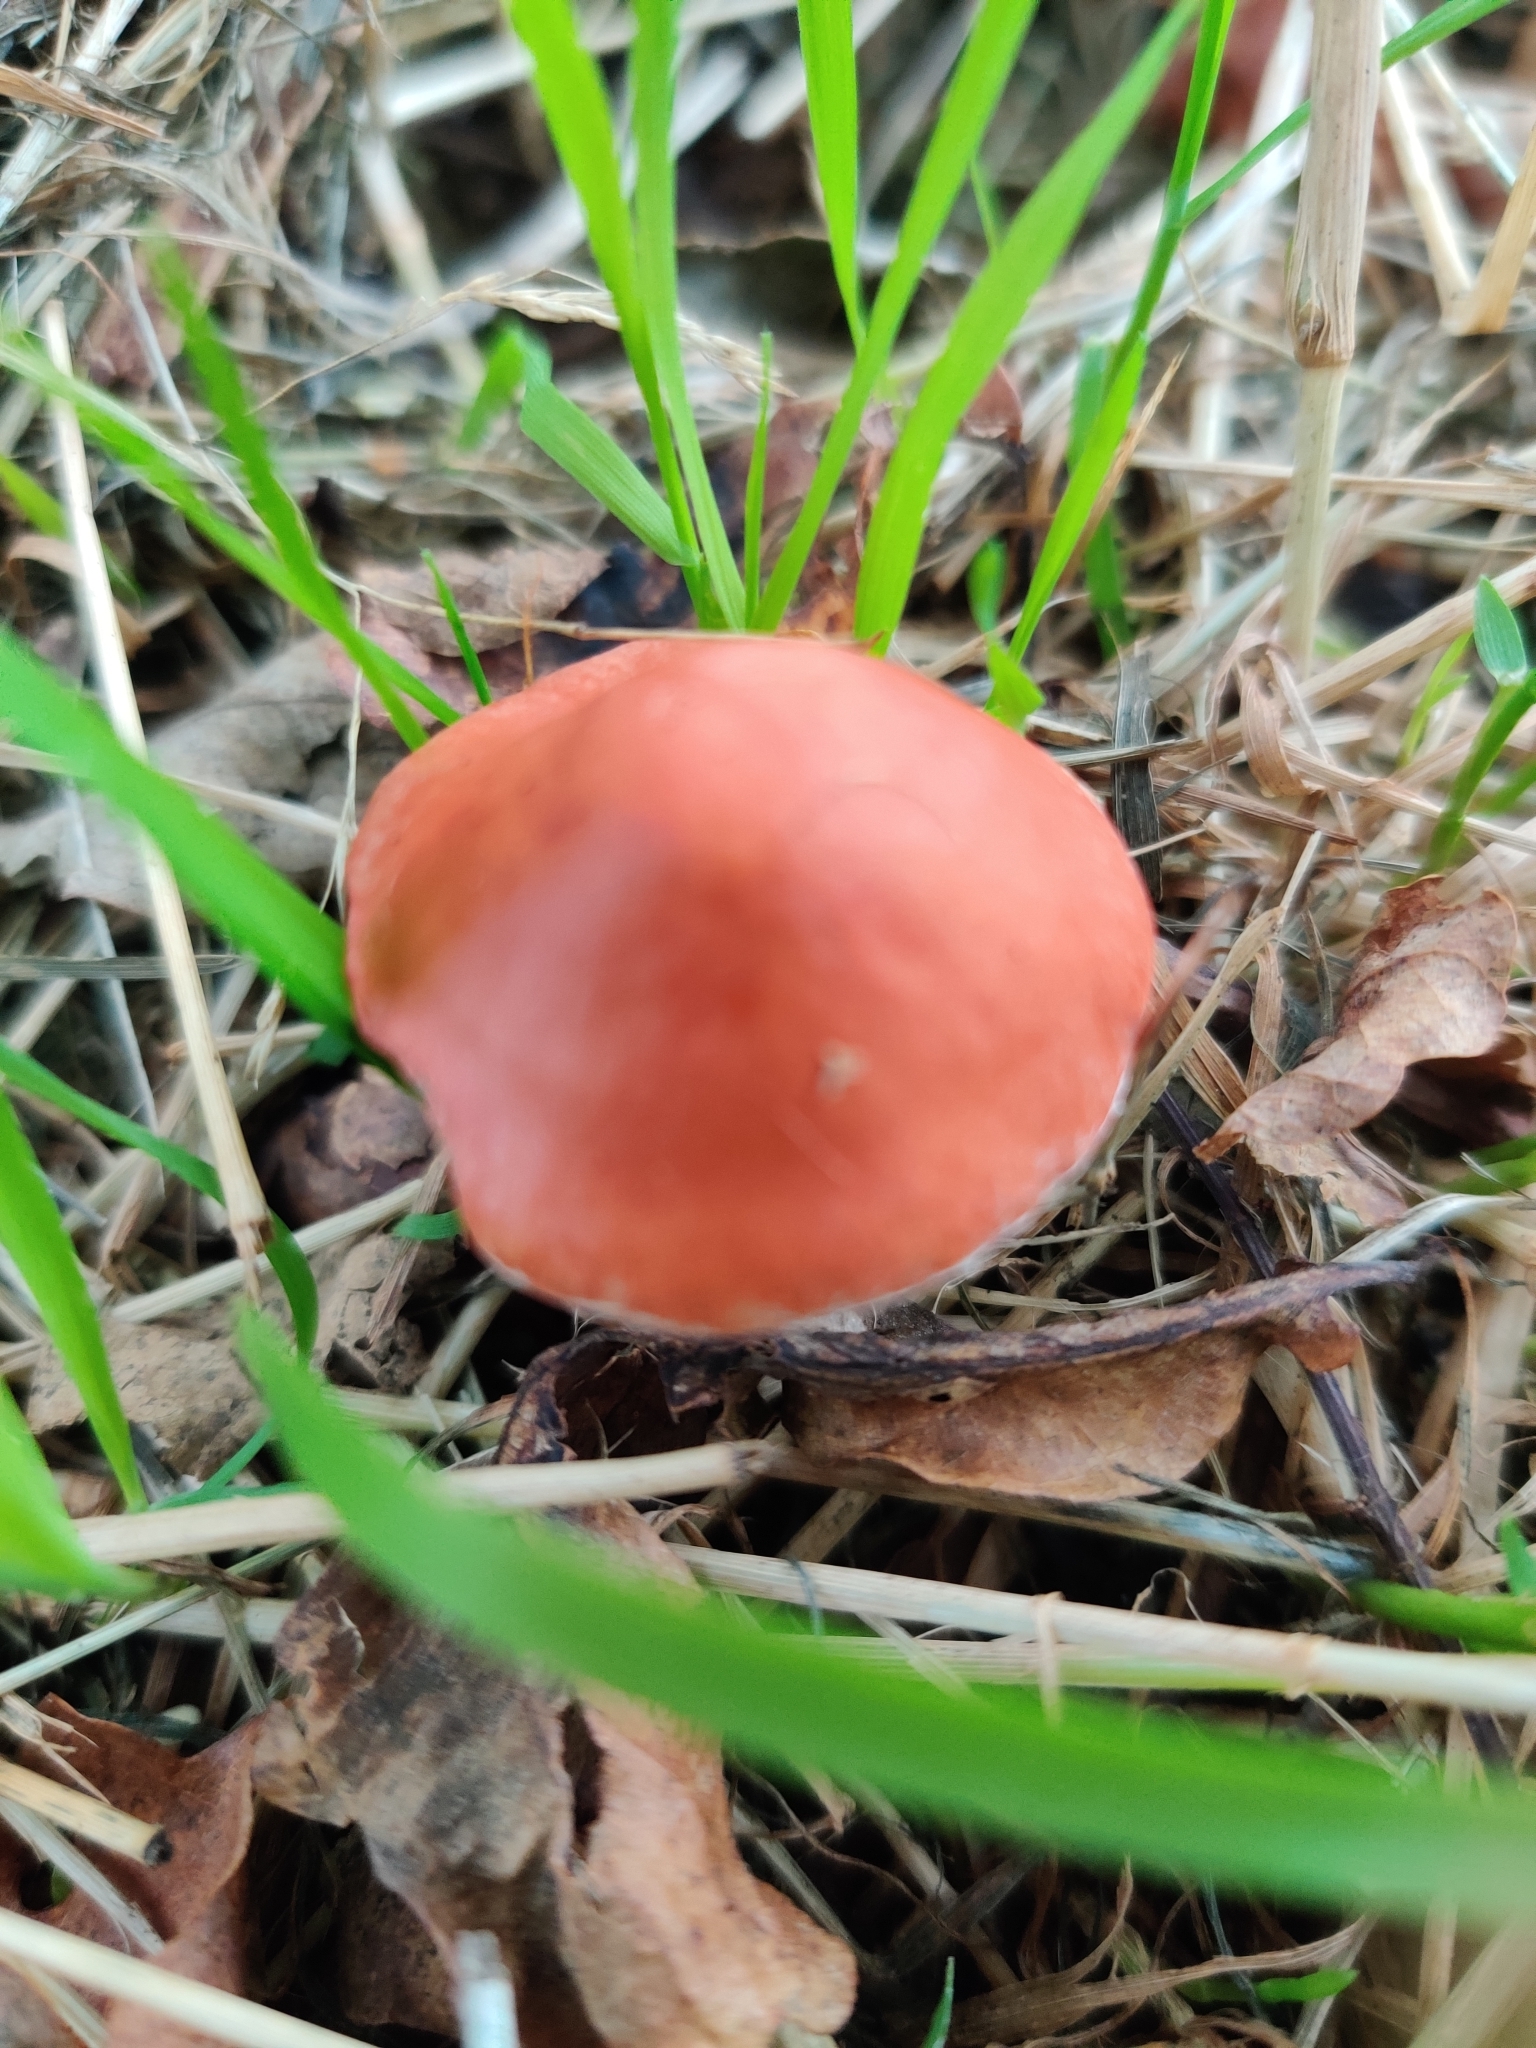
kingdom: Fungi
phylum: Basidiomycota
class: Agaricomycetes
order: Agaricales
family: Strophariaceae
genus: Leratiomyces
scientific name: Leratiomyces ceres
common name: Redlead roundhead
